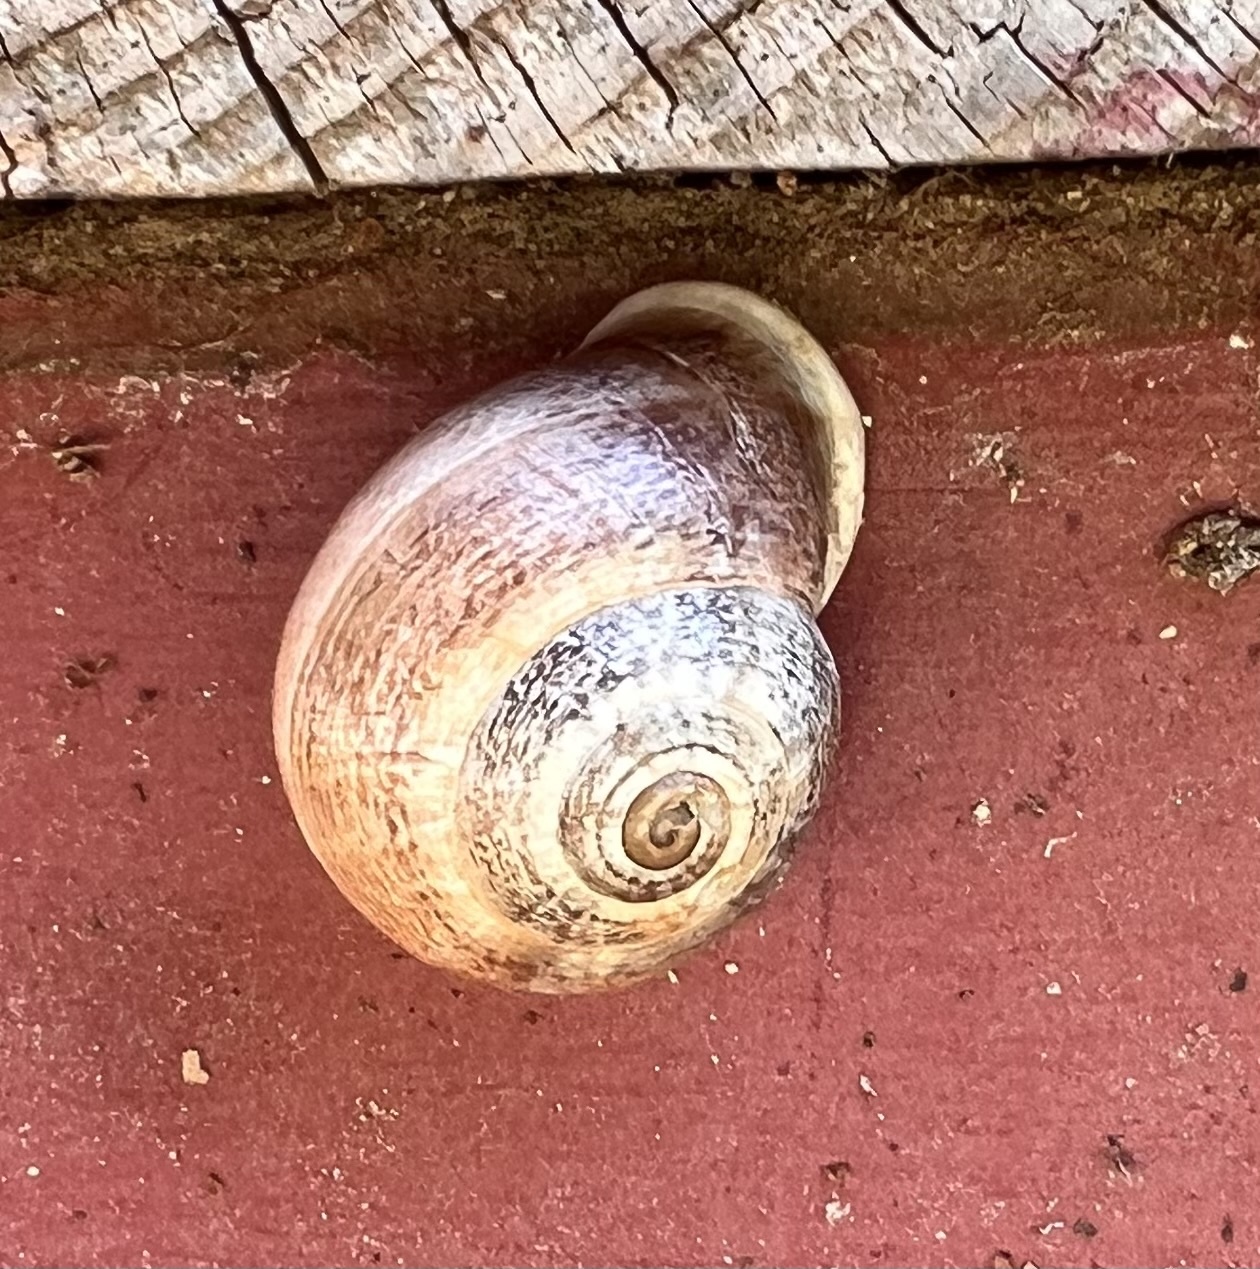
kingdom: Animalia
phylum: Mollusca
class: Gastropoda
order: Stylommatophora
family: Helicidae
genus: Otala
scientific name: Otala lactea
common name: Milk snail
